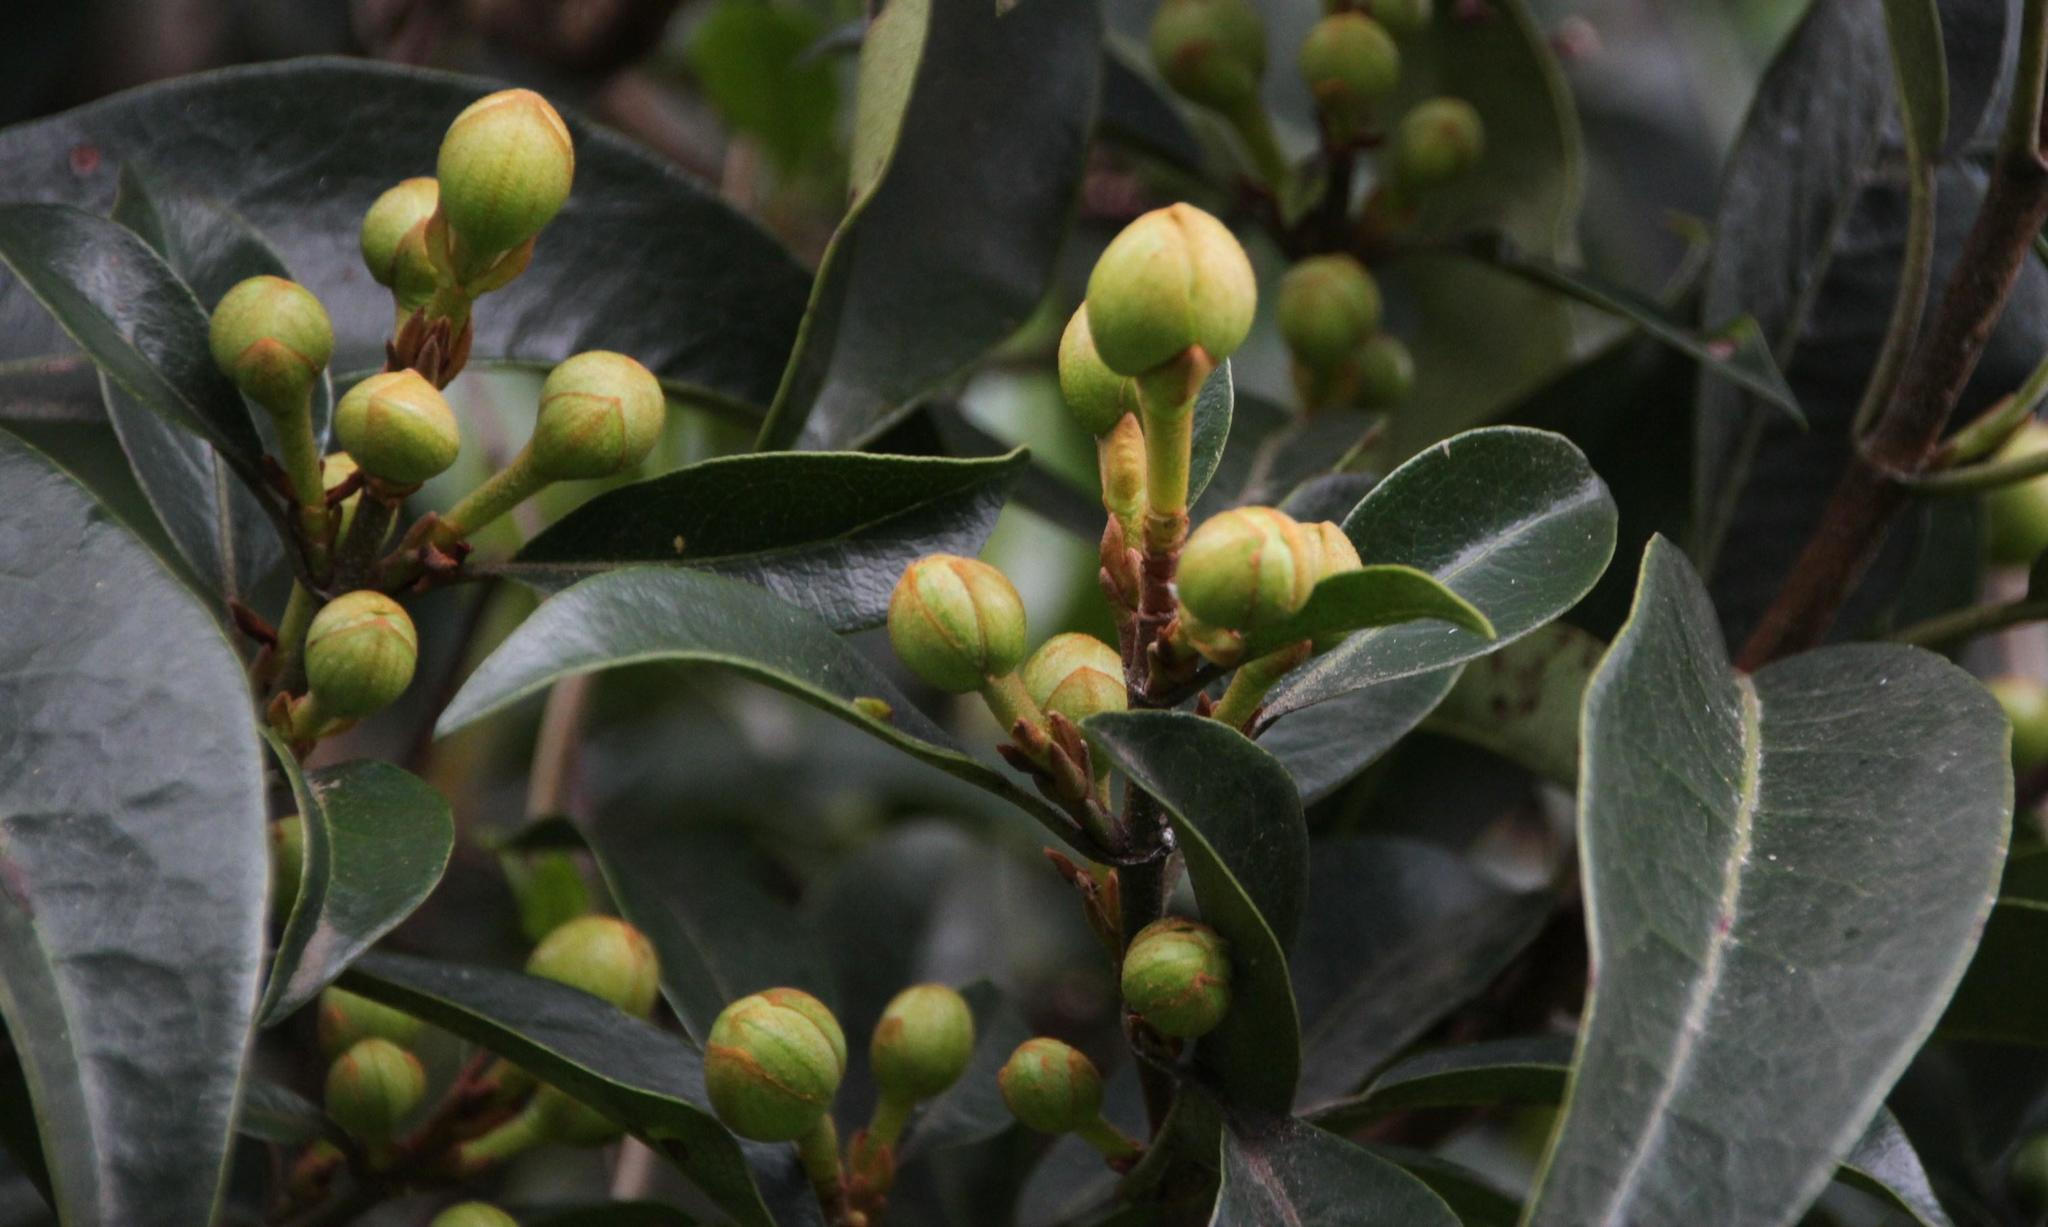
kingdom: Plantae
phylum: Tracheophyta
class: Magnoliopsida
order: Cornales
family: Hydrangeaceae
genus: Hydrangea
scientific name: Hydrangea serratifolia
